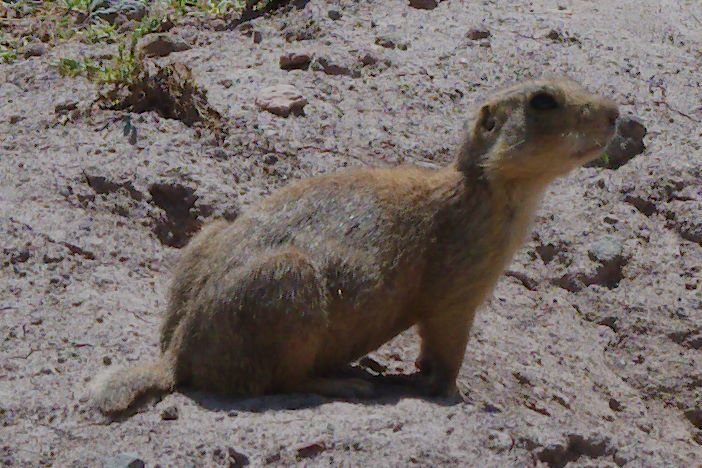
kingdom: Animalia
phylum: Chordata
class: Mammalia
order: Rodentia
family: Sciuridae
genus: Cynomys
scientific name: Cynomys gunnisoni
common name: Gunnison's prairie dog
